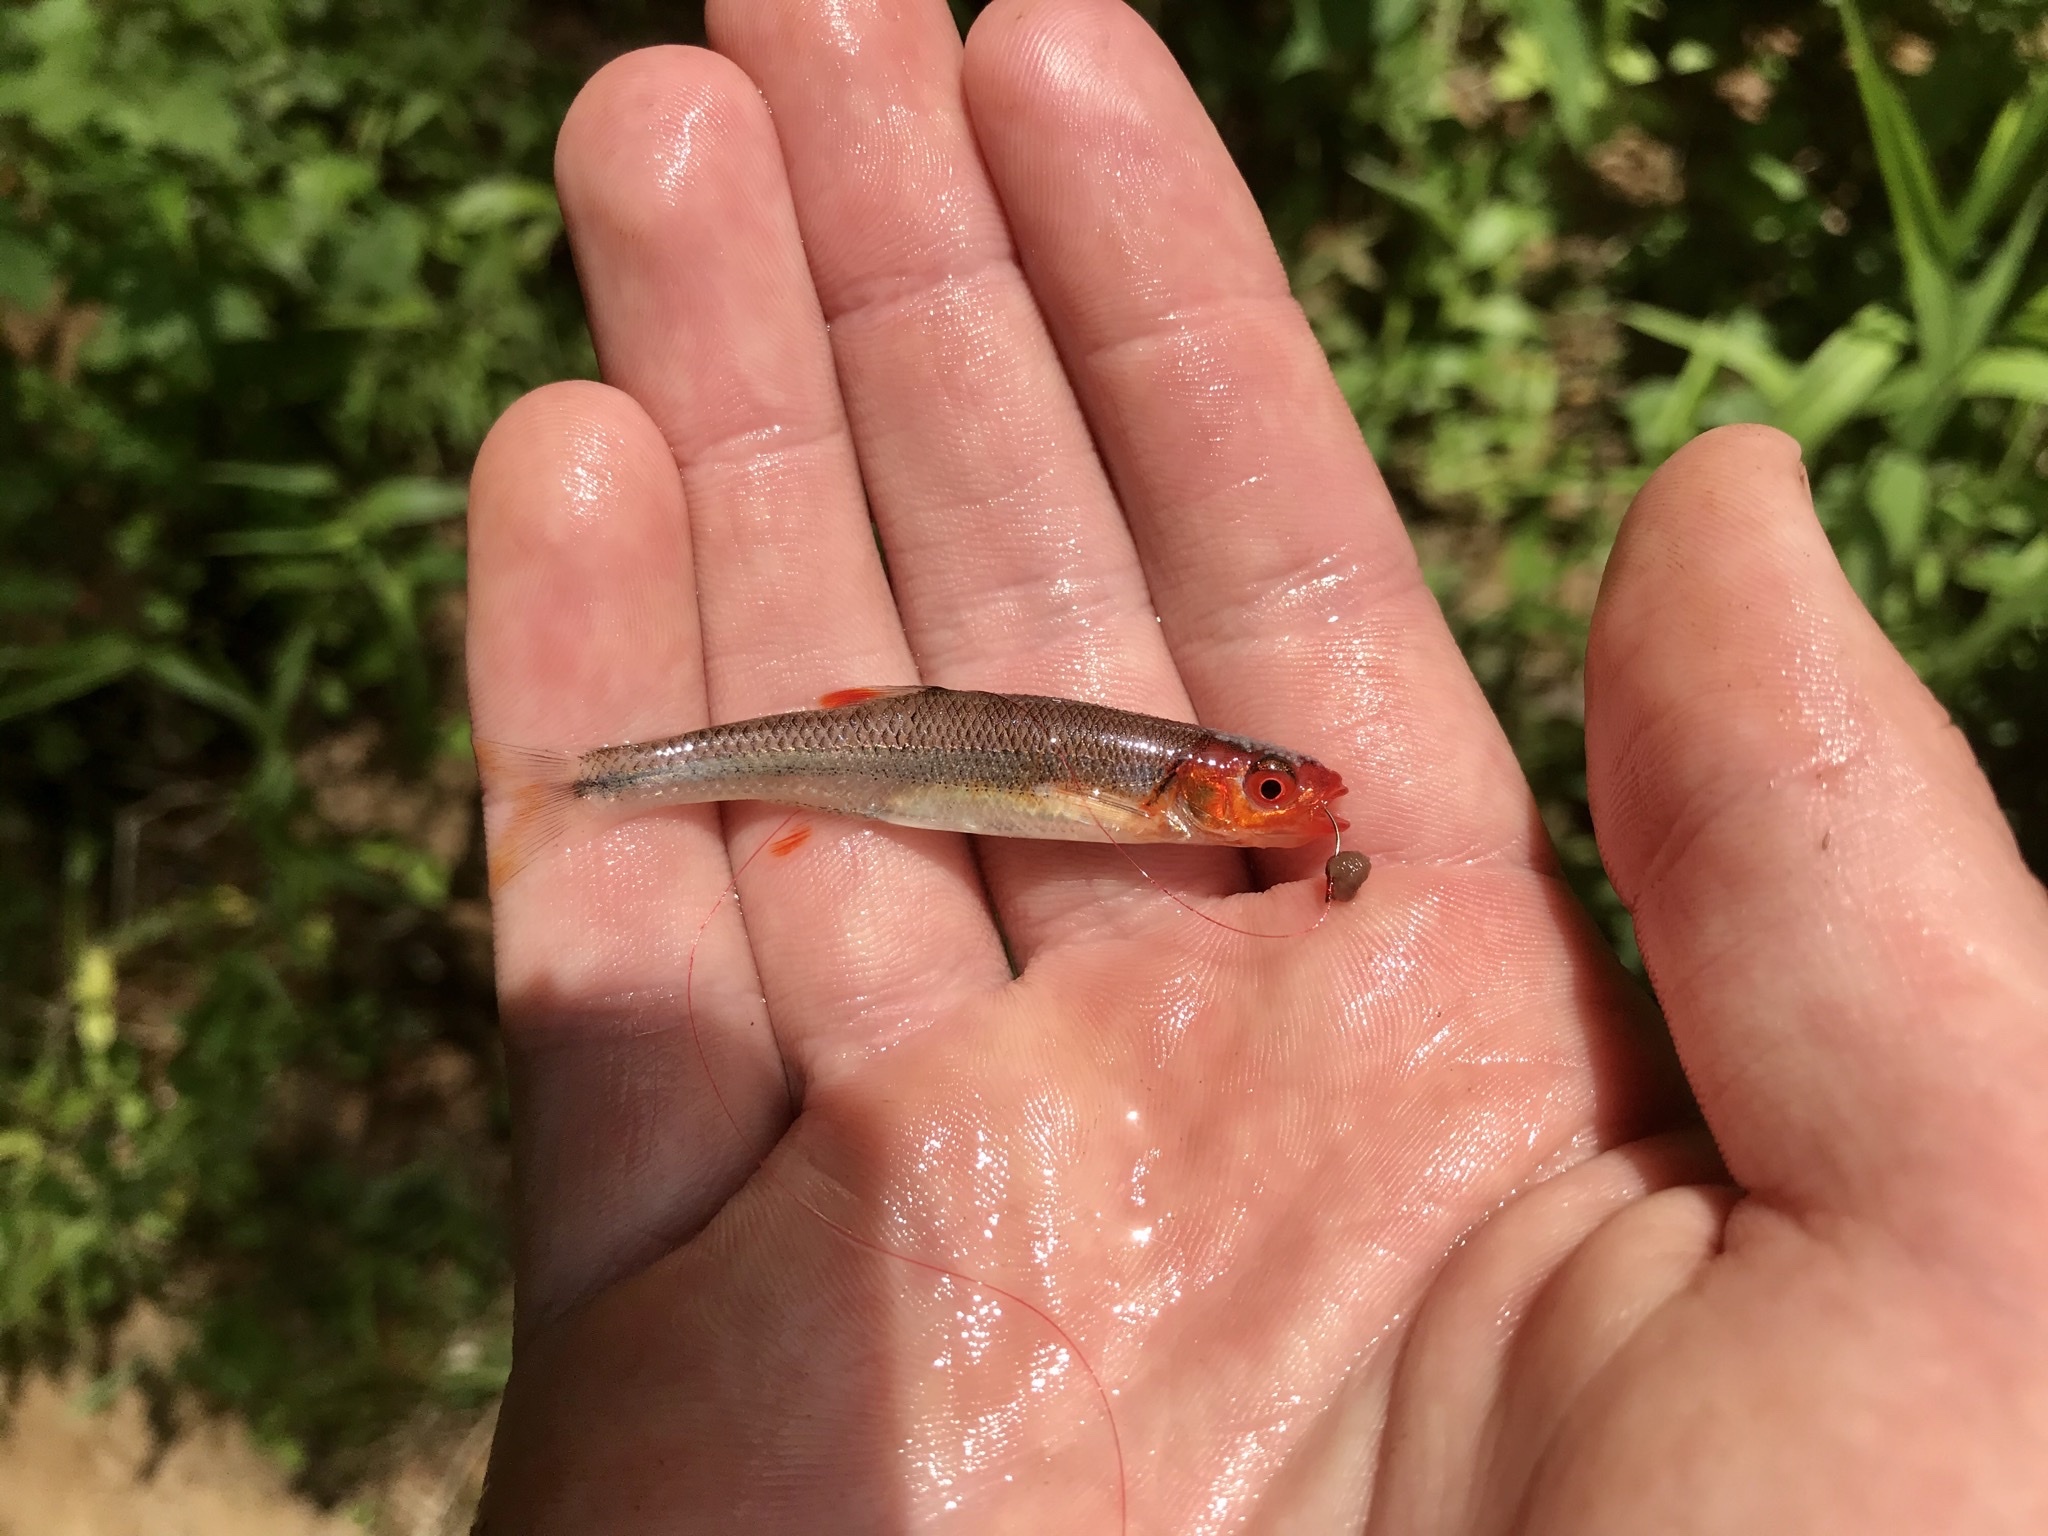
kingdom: Animalia
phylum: Chordata
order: Cypriniformes
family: Cyprinidae
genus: Lythrurus
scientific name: Lythrurus matutinus
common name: Pinewoods shiner
